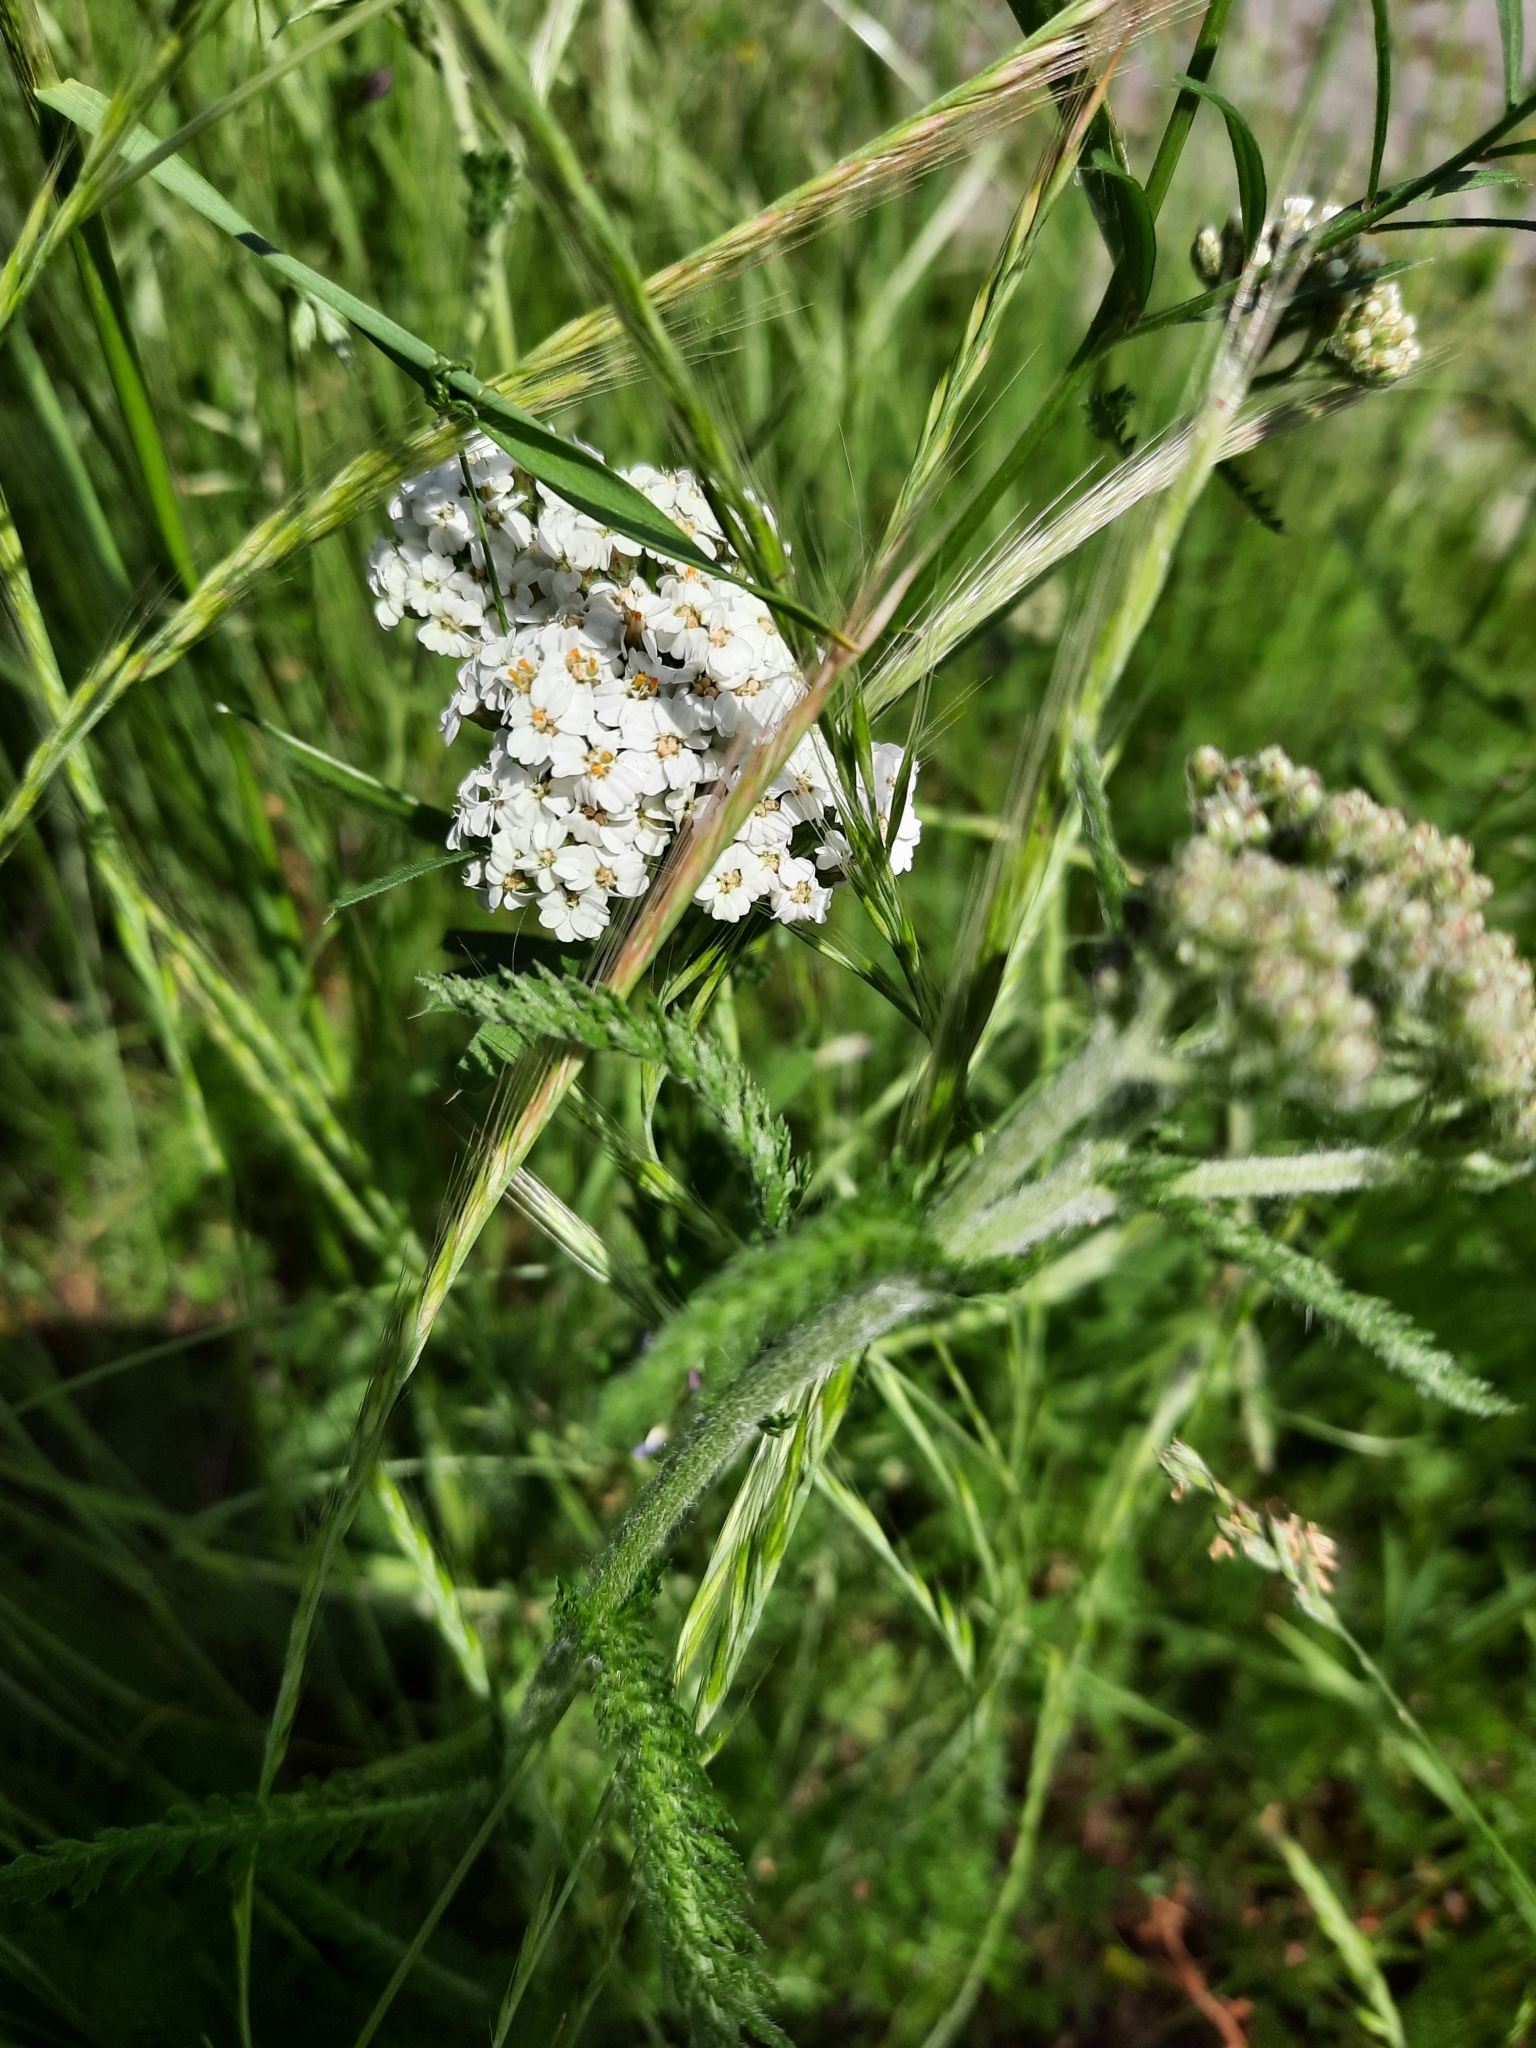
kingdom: Plantae
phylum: Tracheophyta
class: Magnoliopsida
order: Asterales
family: Asteraceae
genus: Achillea
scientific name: Achillea millefolium
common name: Yarrow
